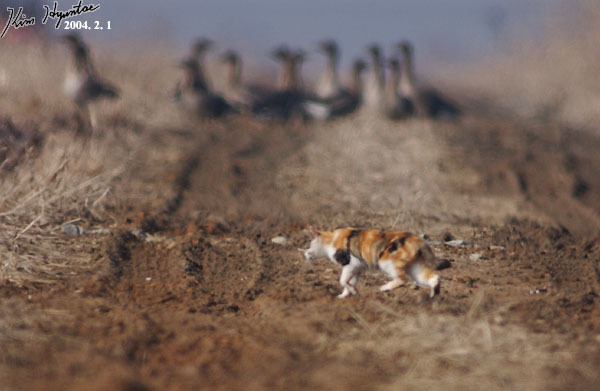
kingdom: Animalia
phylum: Chordata
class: Mammalia
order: Carnivora
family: Felidae
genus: Felis
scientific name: Felis catus
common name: Domestic cat
